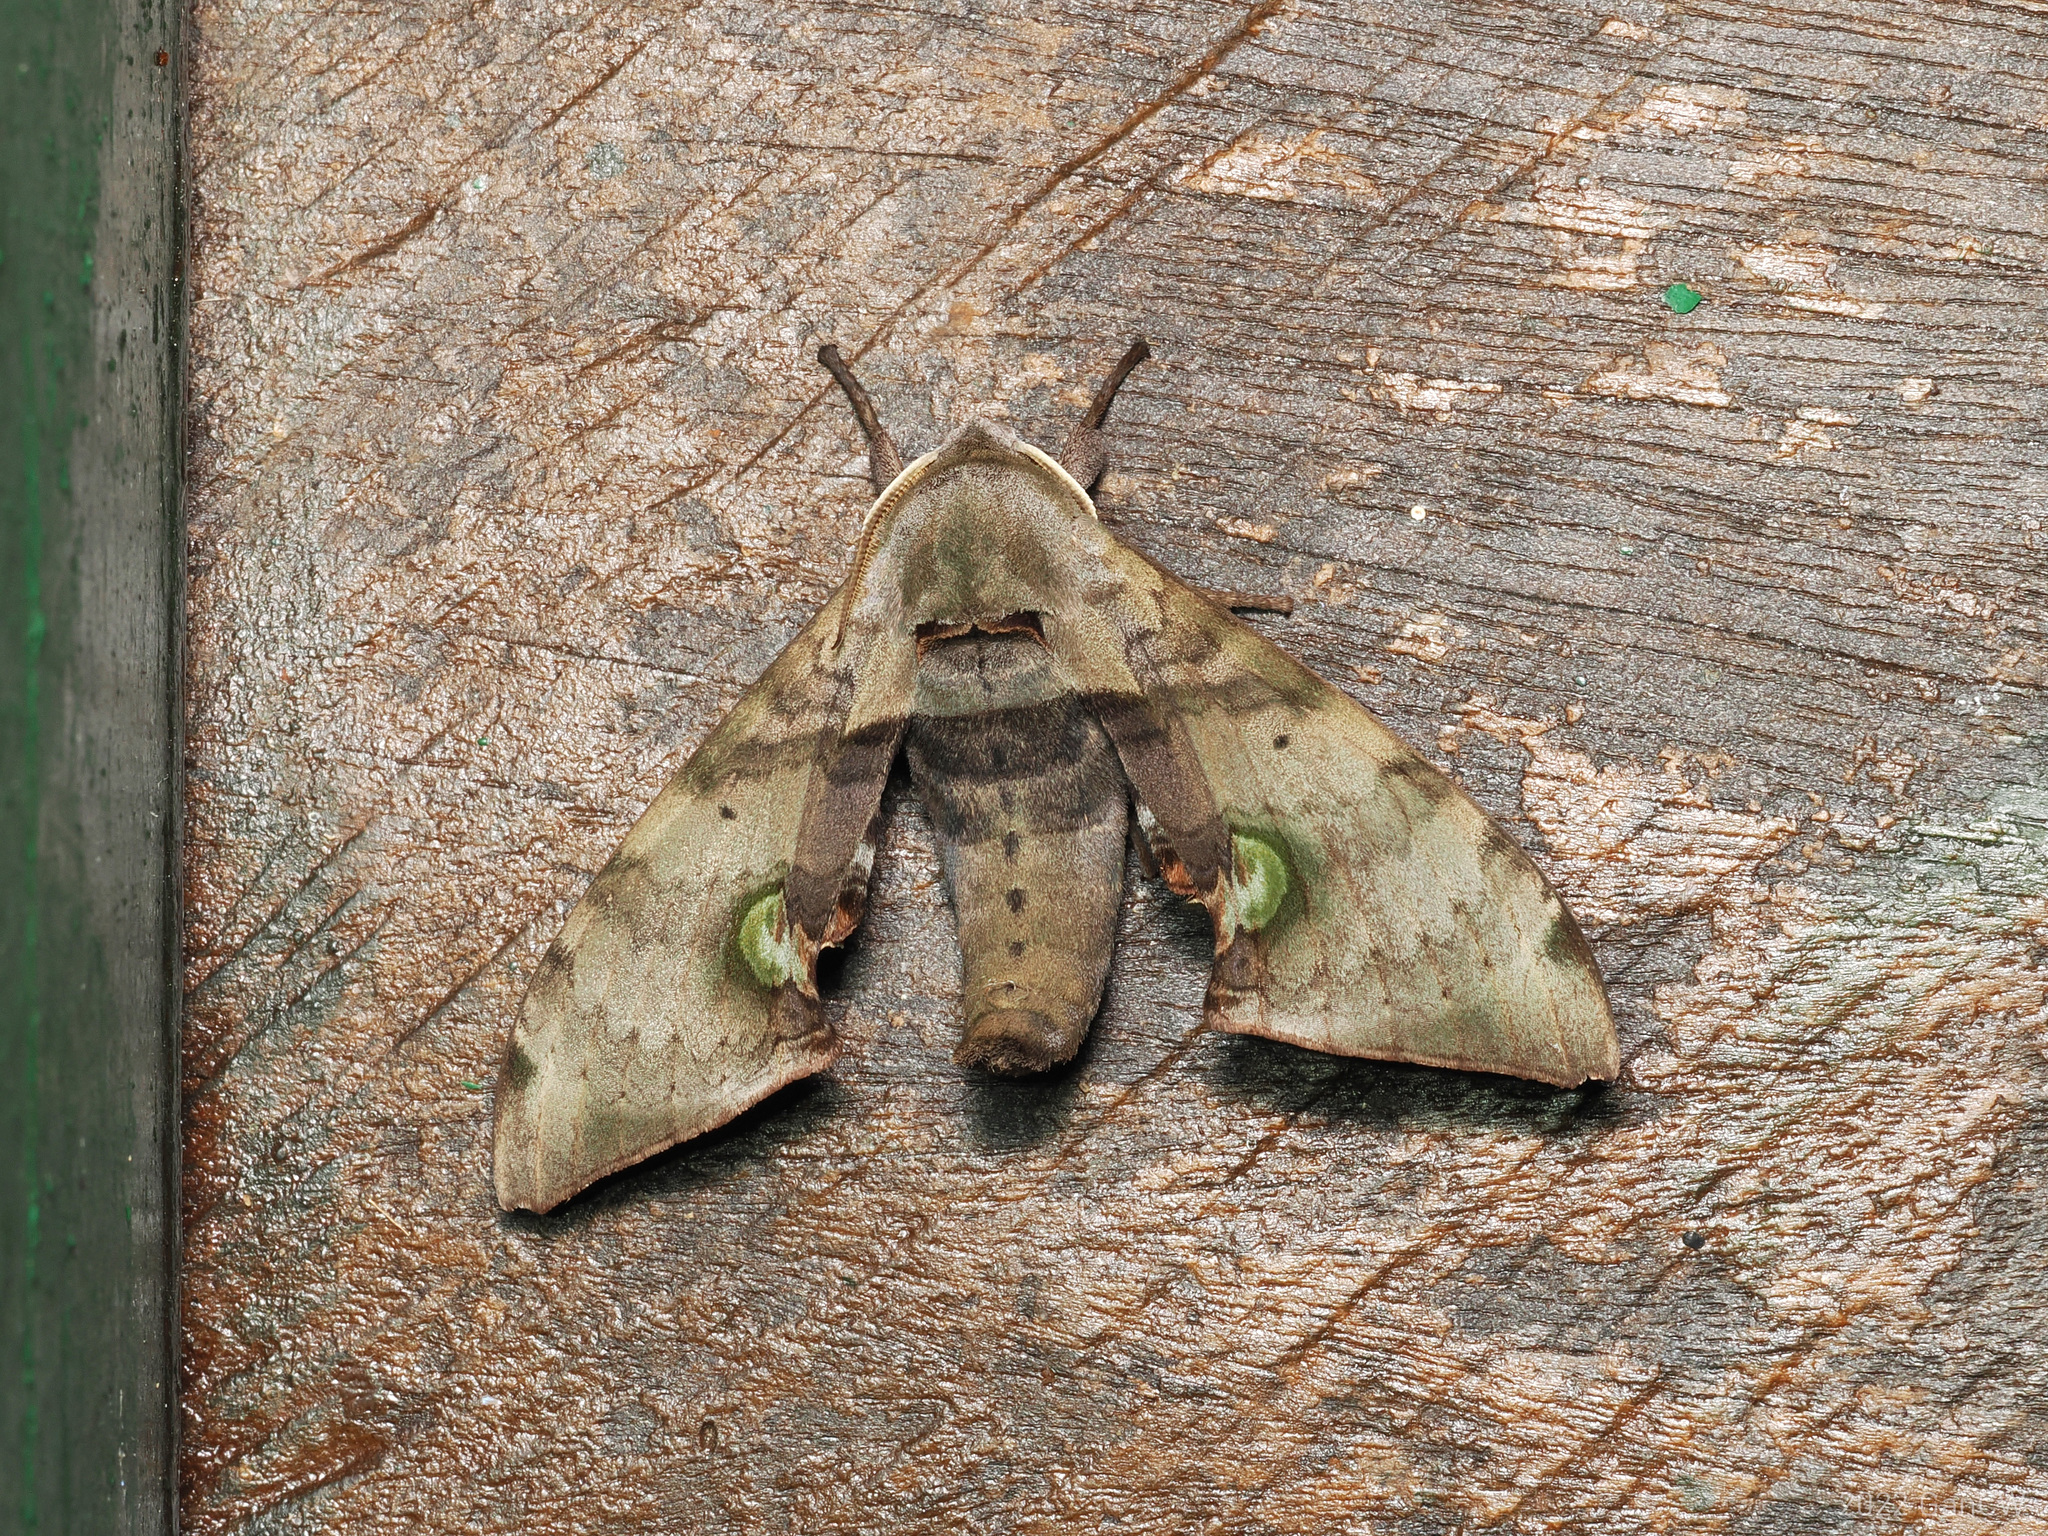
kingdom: Animalia
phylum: Arthropoda
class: Insecta
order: Lepidoptera
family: Sphingidae
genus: Daphnusa
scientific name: Daphnusa fruhstorferi
